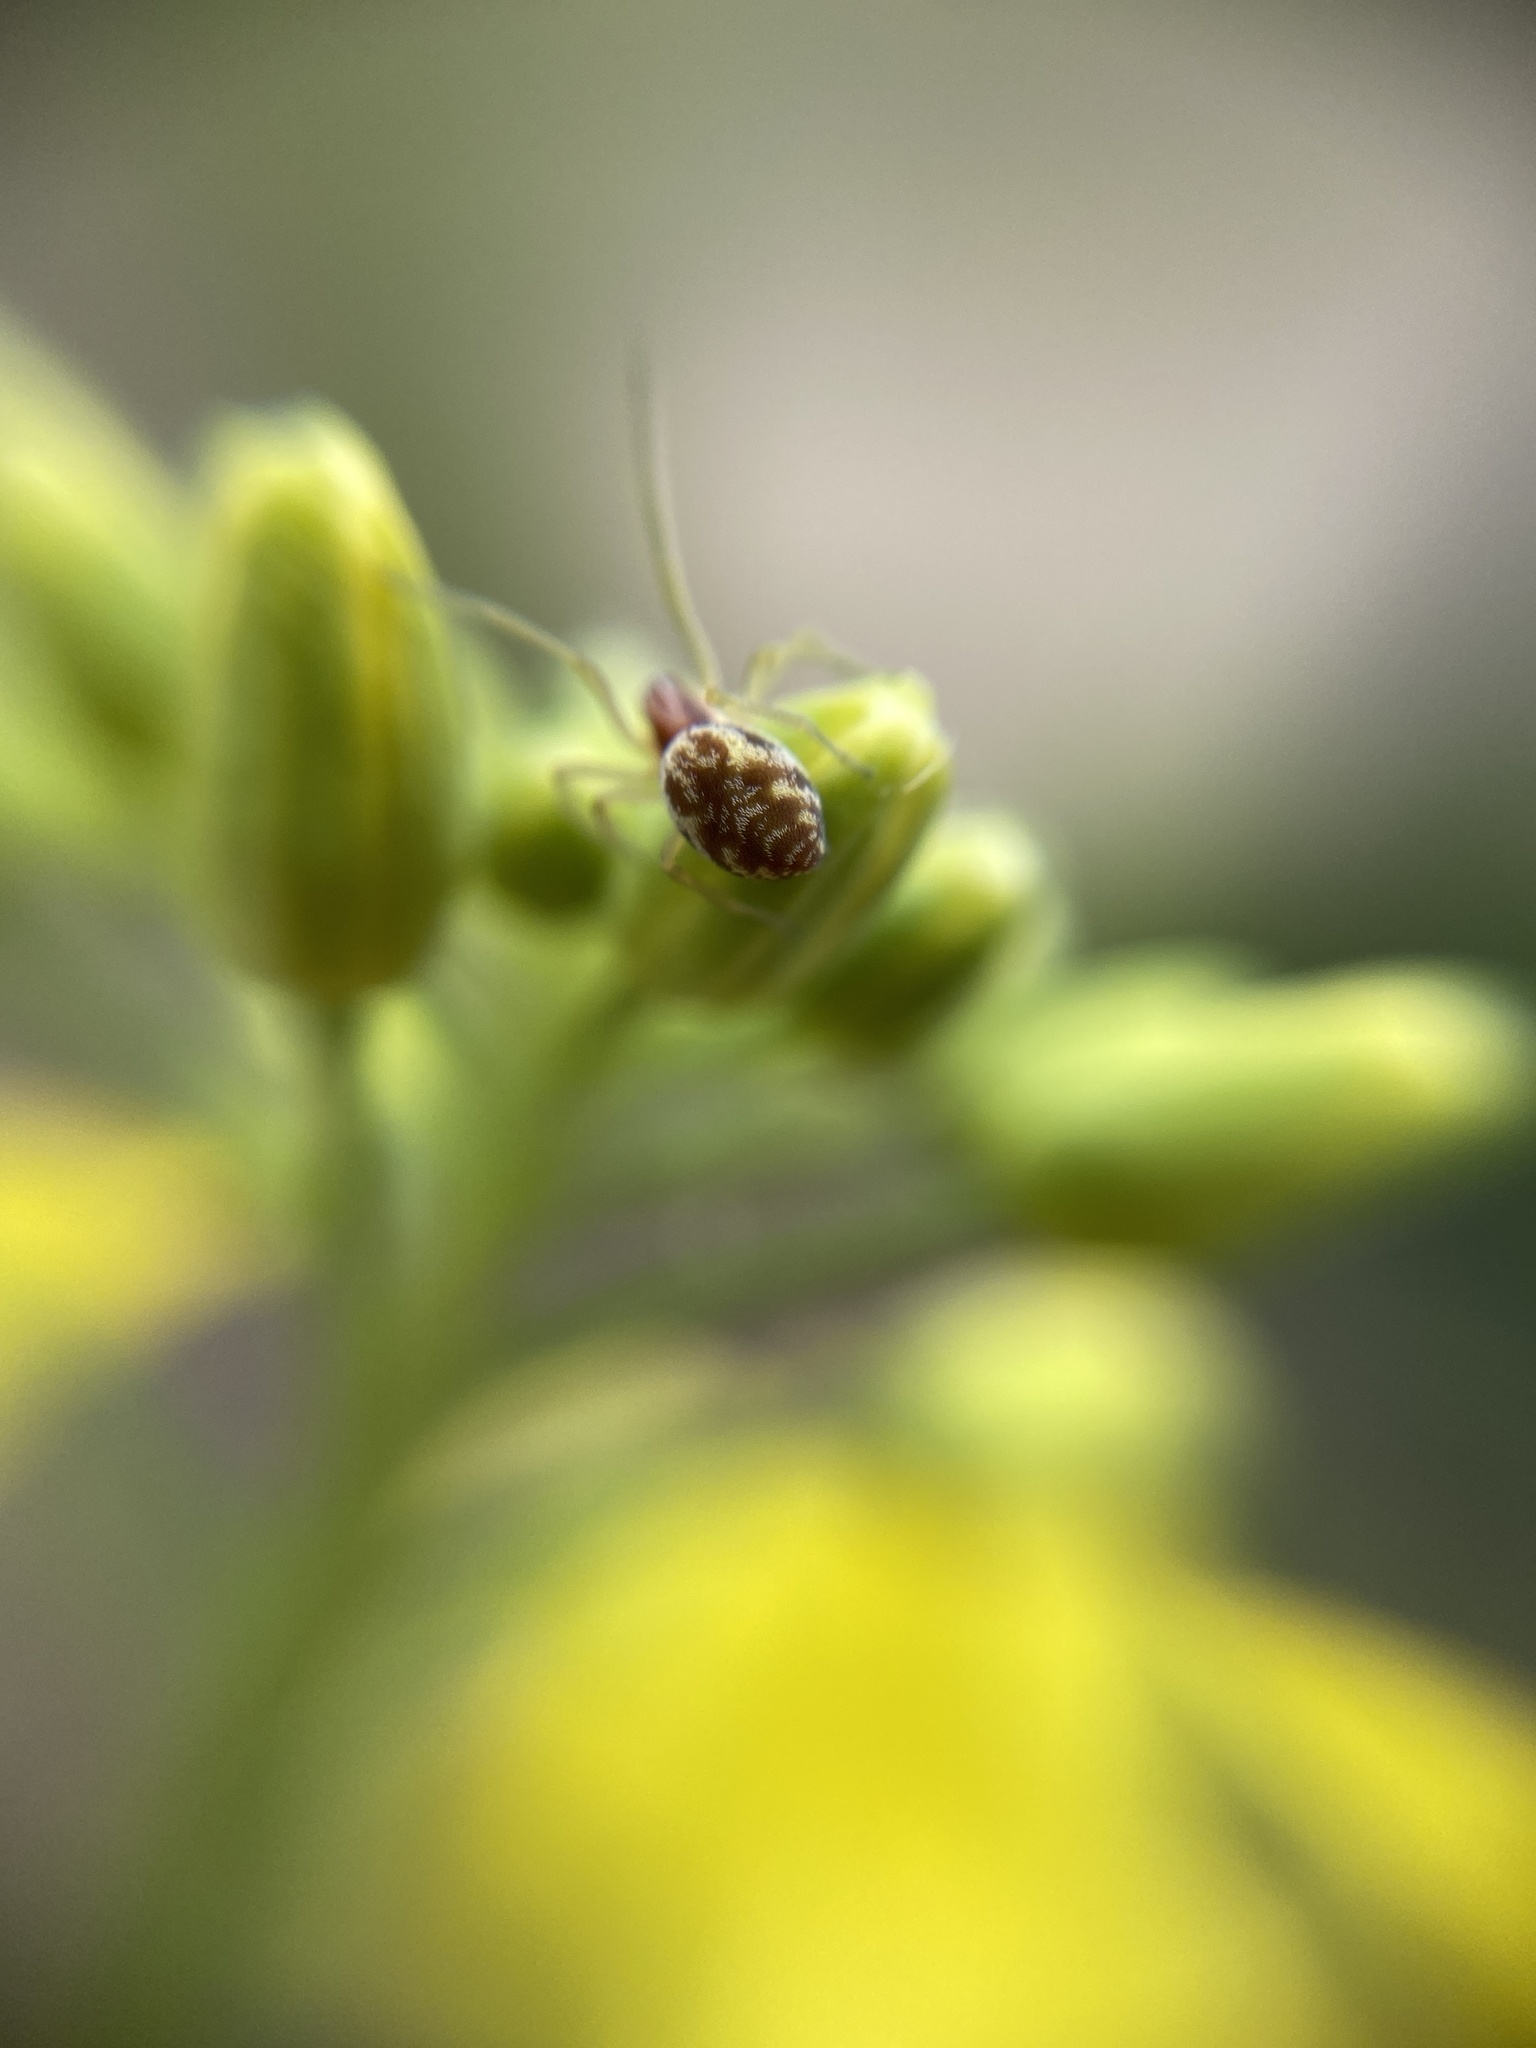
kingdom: Animalia
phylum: Arthropoda
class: Arachnida
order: Araneae
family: Dictynidae
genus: Nigma
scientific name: Nigma flavescens
